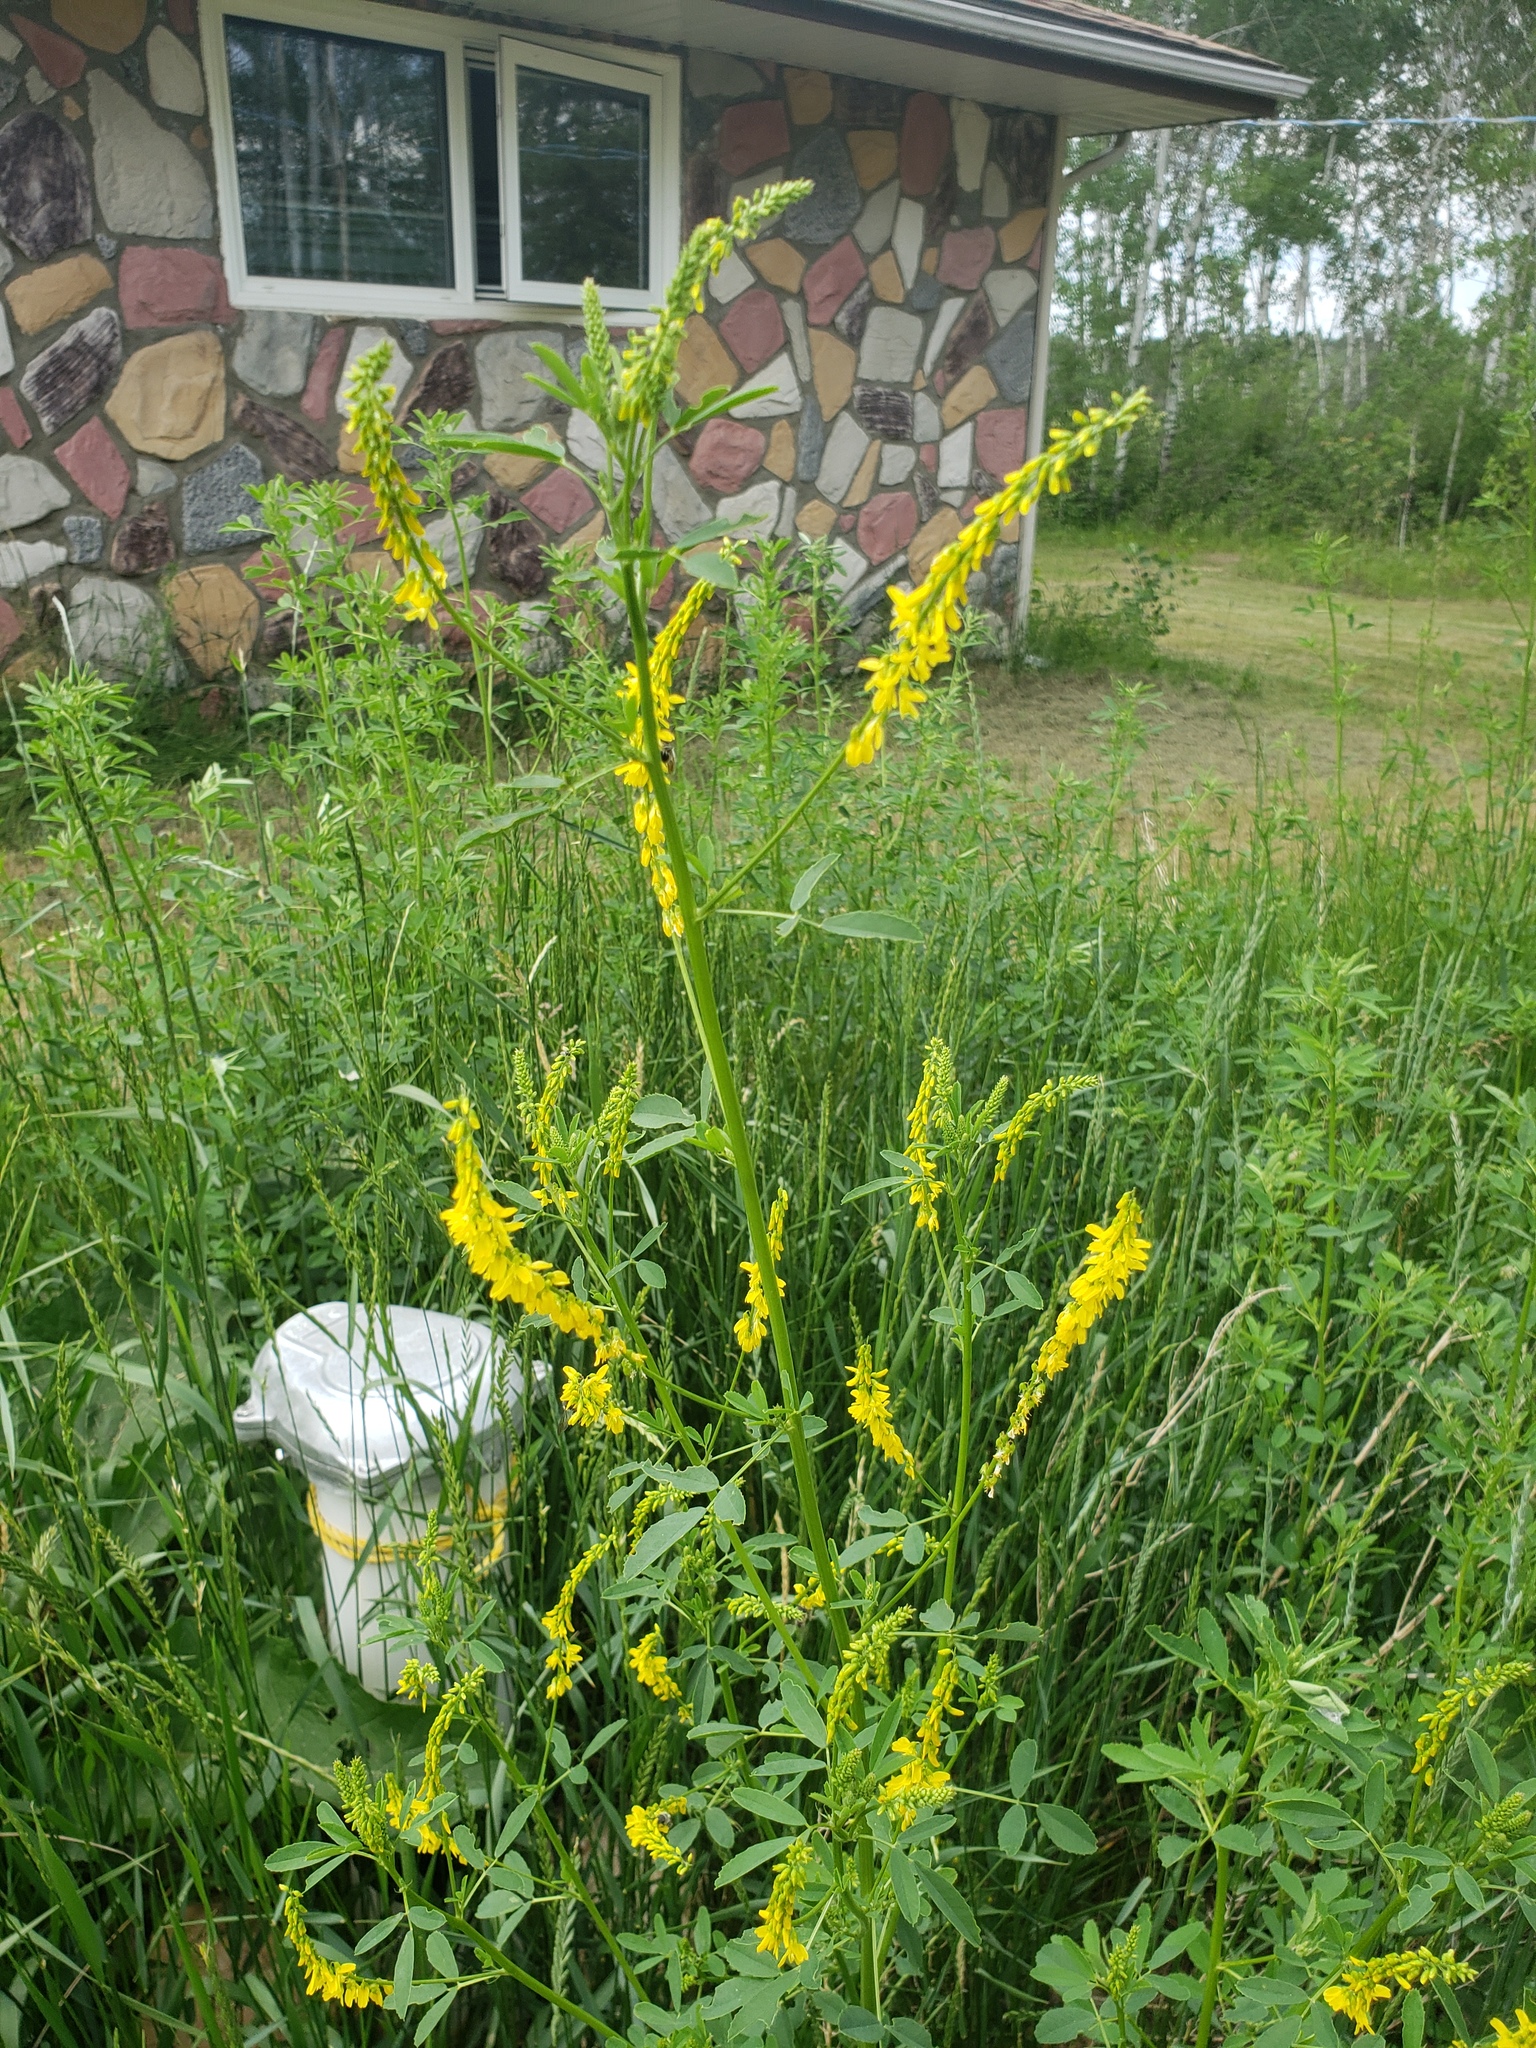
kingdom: Plantae
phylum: Tracheophyta
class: Magnoliopsida
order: Fabales
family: Fabaceae
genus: Melilotus
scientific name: Melilotus officinalis
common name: Sweetclover
